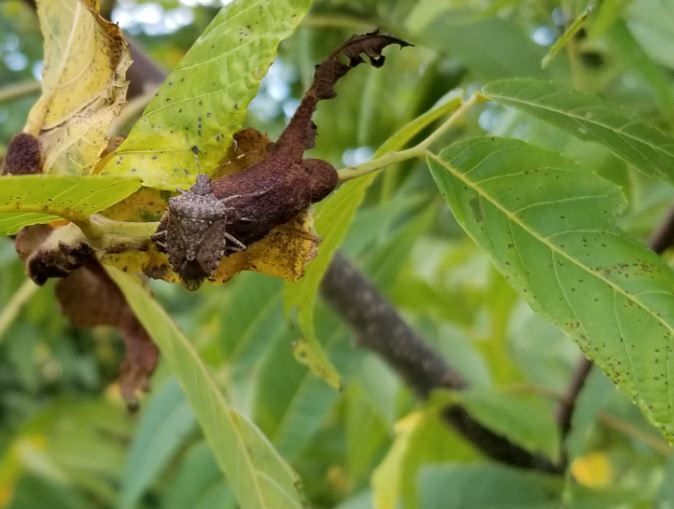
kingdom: Animalia
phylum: Arthropoda
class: Insecta
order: Hemiptera
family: Pentatomidae
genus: Halyomorpha
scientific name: Halyomorpha halys
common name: Brown marmorated stink bug
